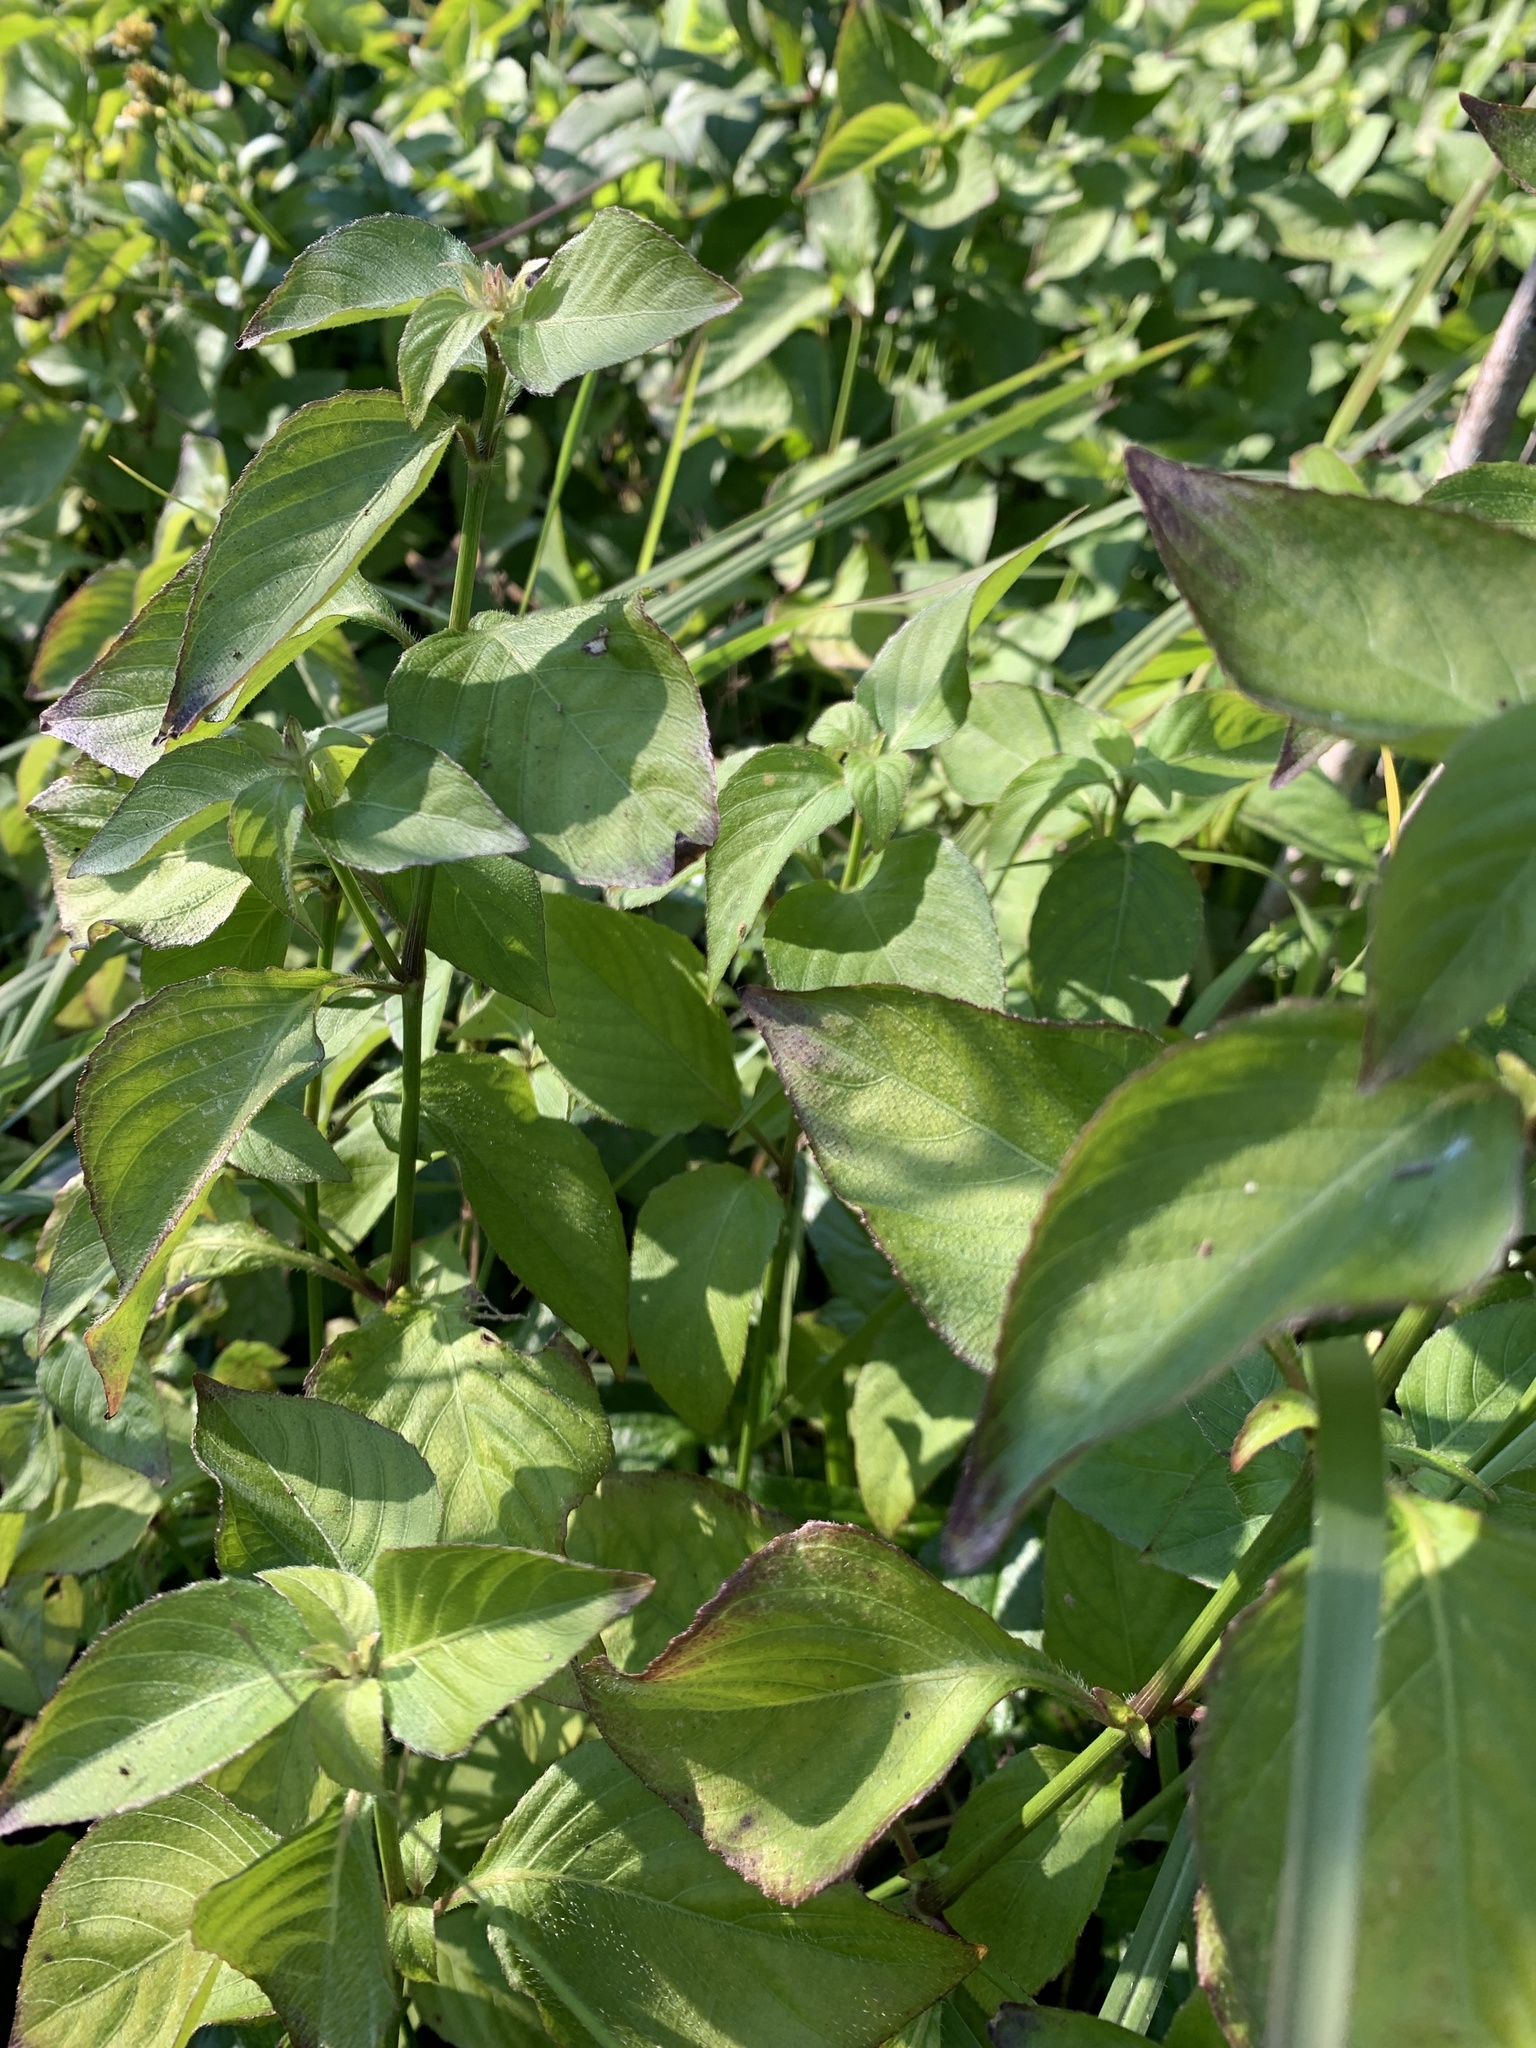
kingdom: Plantae
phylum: Tracheophyta
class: Magnoliopsida
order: Lamiales
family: Acanthaceae
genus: Ruellia
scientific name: Ruellia blechum
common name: Browne's blechum
